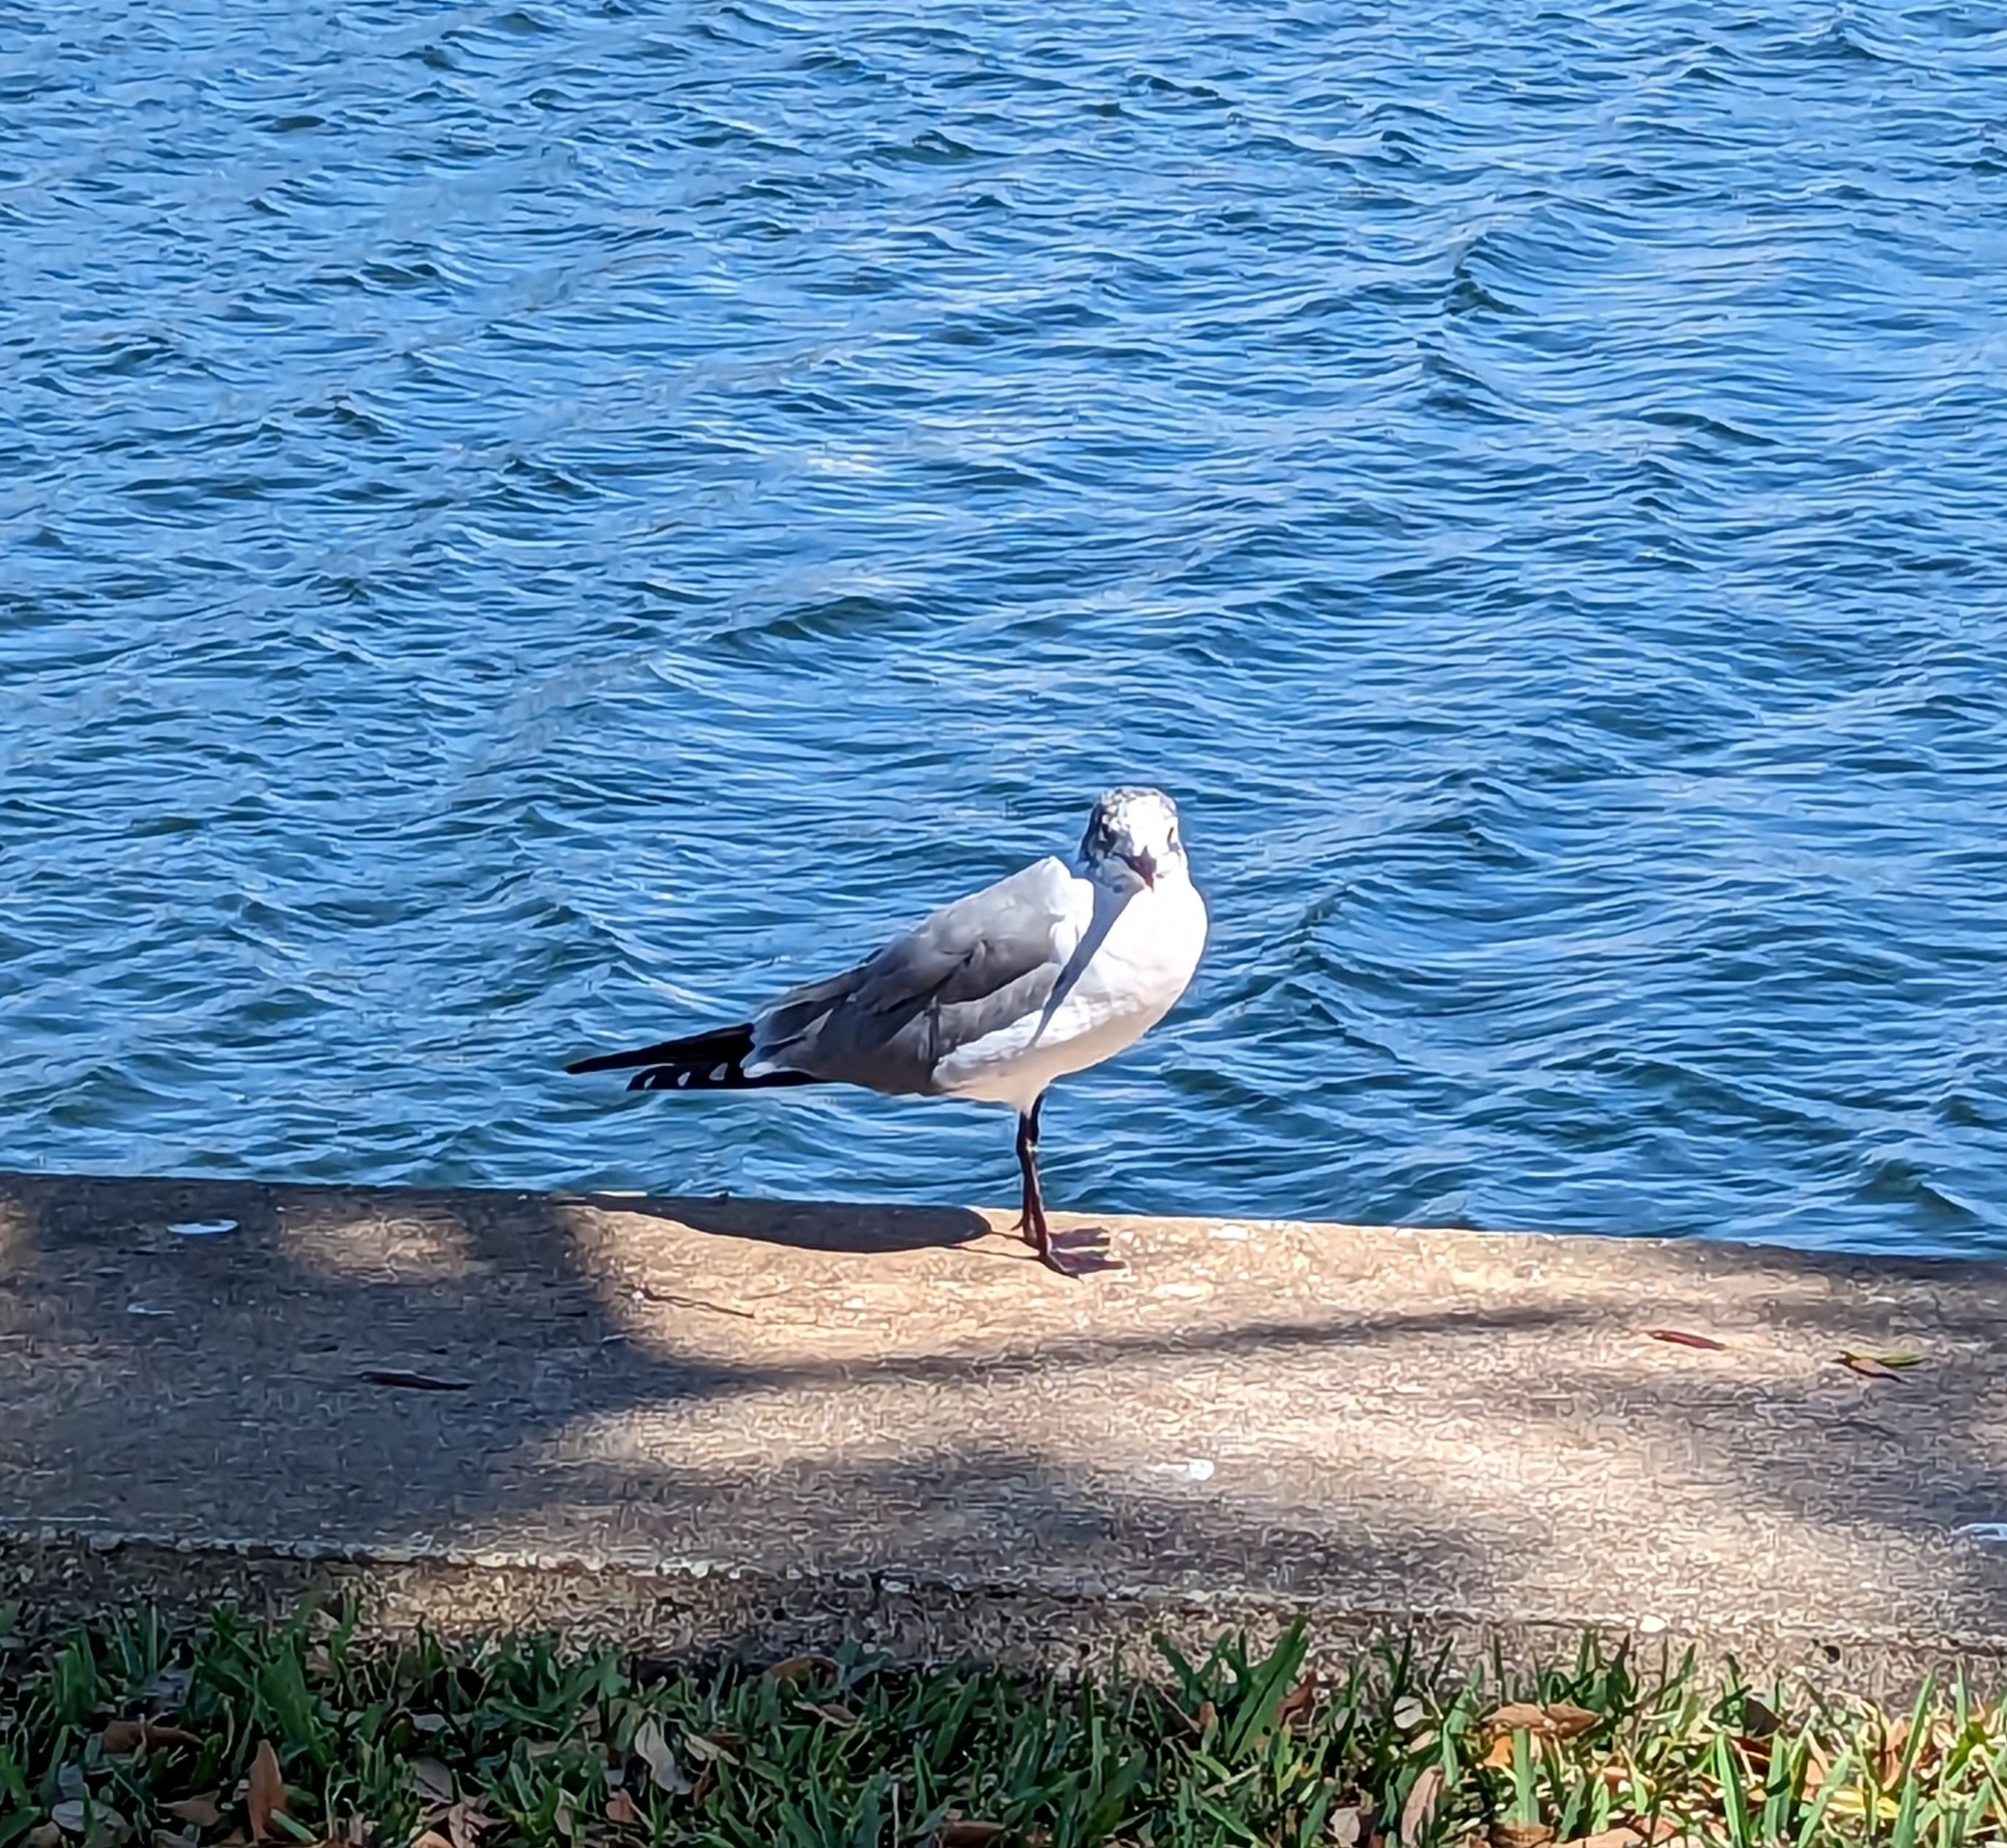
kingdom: Animalia
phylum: Chordata
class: Aves
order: Charadriiformes
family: Laridae
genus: Leucophaeus
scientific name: Leucophaeus atricilla
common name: Laughing gull
